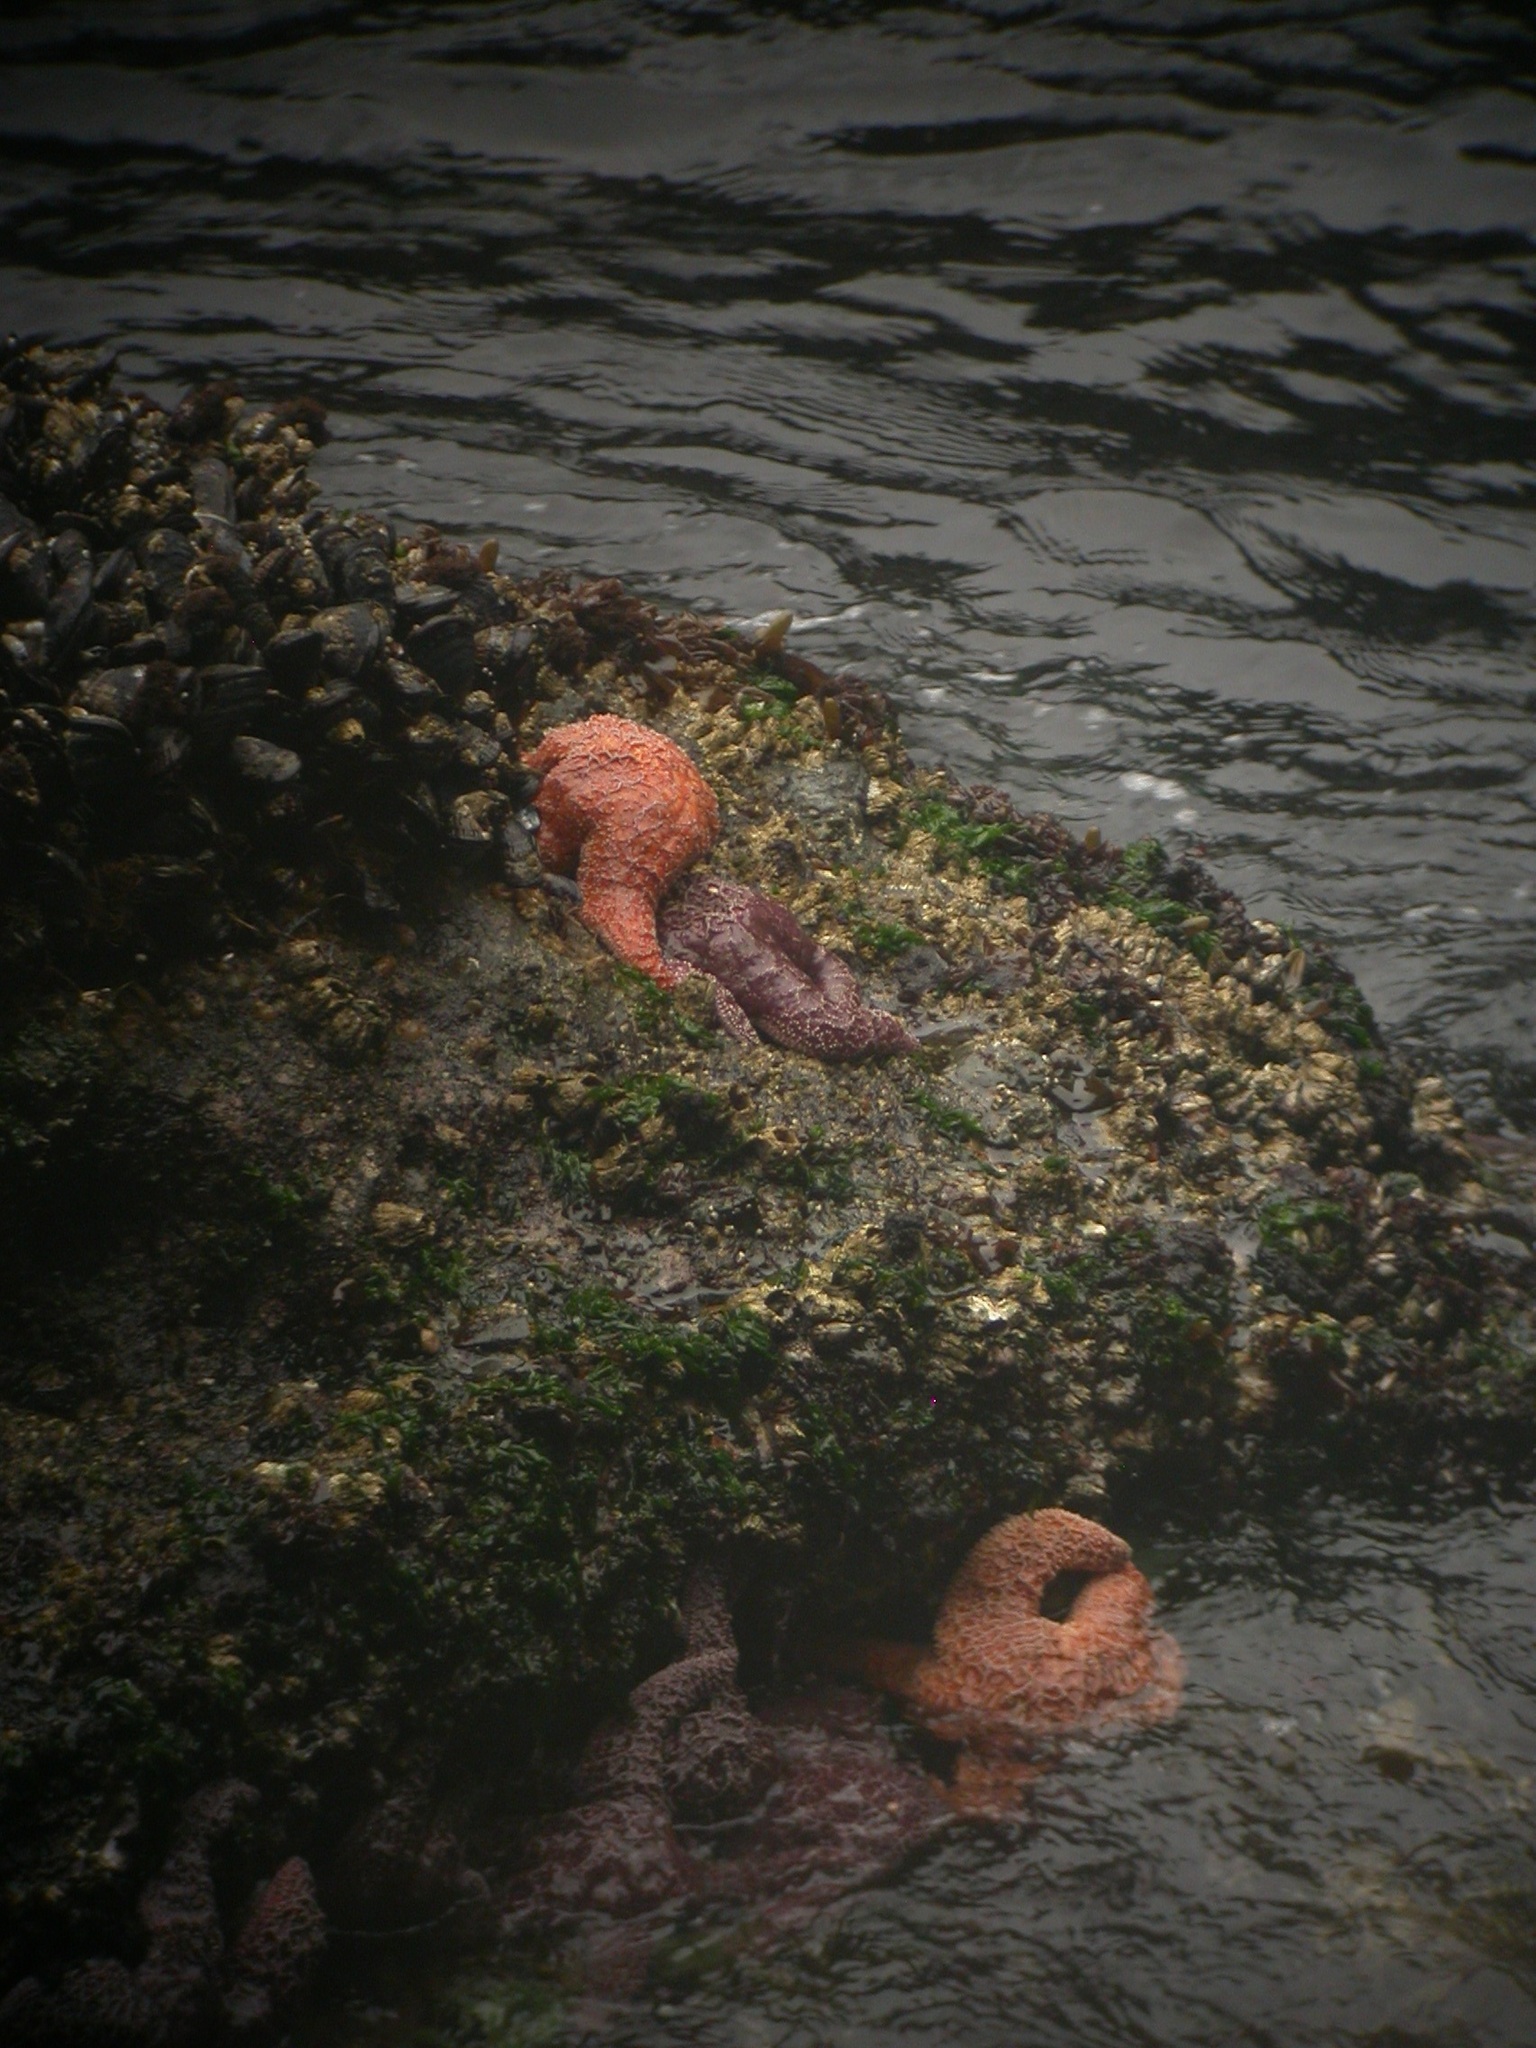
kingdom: Animalia
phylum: Echinodermata
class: Asteroidea
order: Forcipulatida
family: Asteriidae
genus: Pisaster
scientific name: Pisaster ochraceus
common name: Ochre stars
